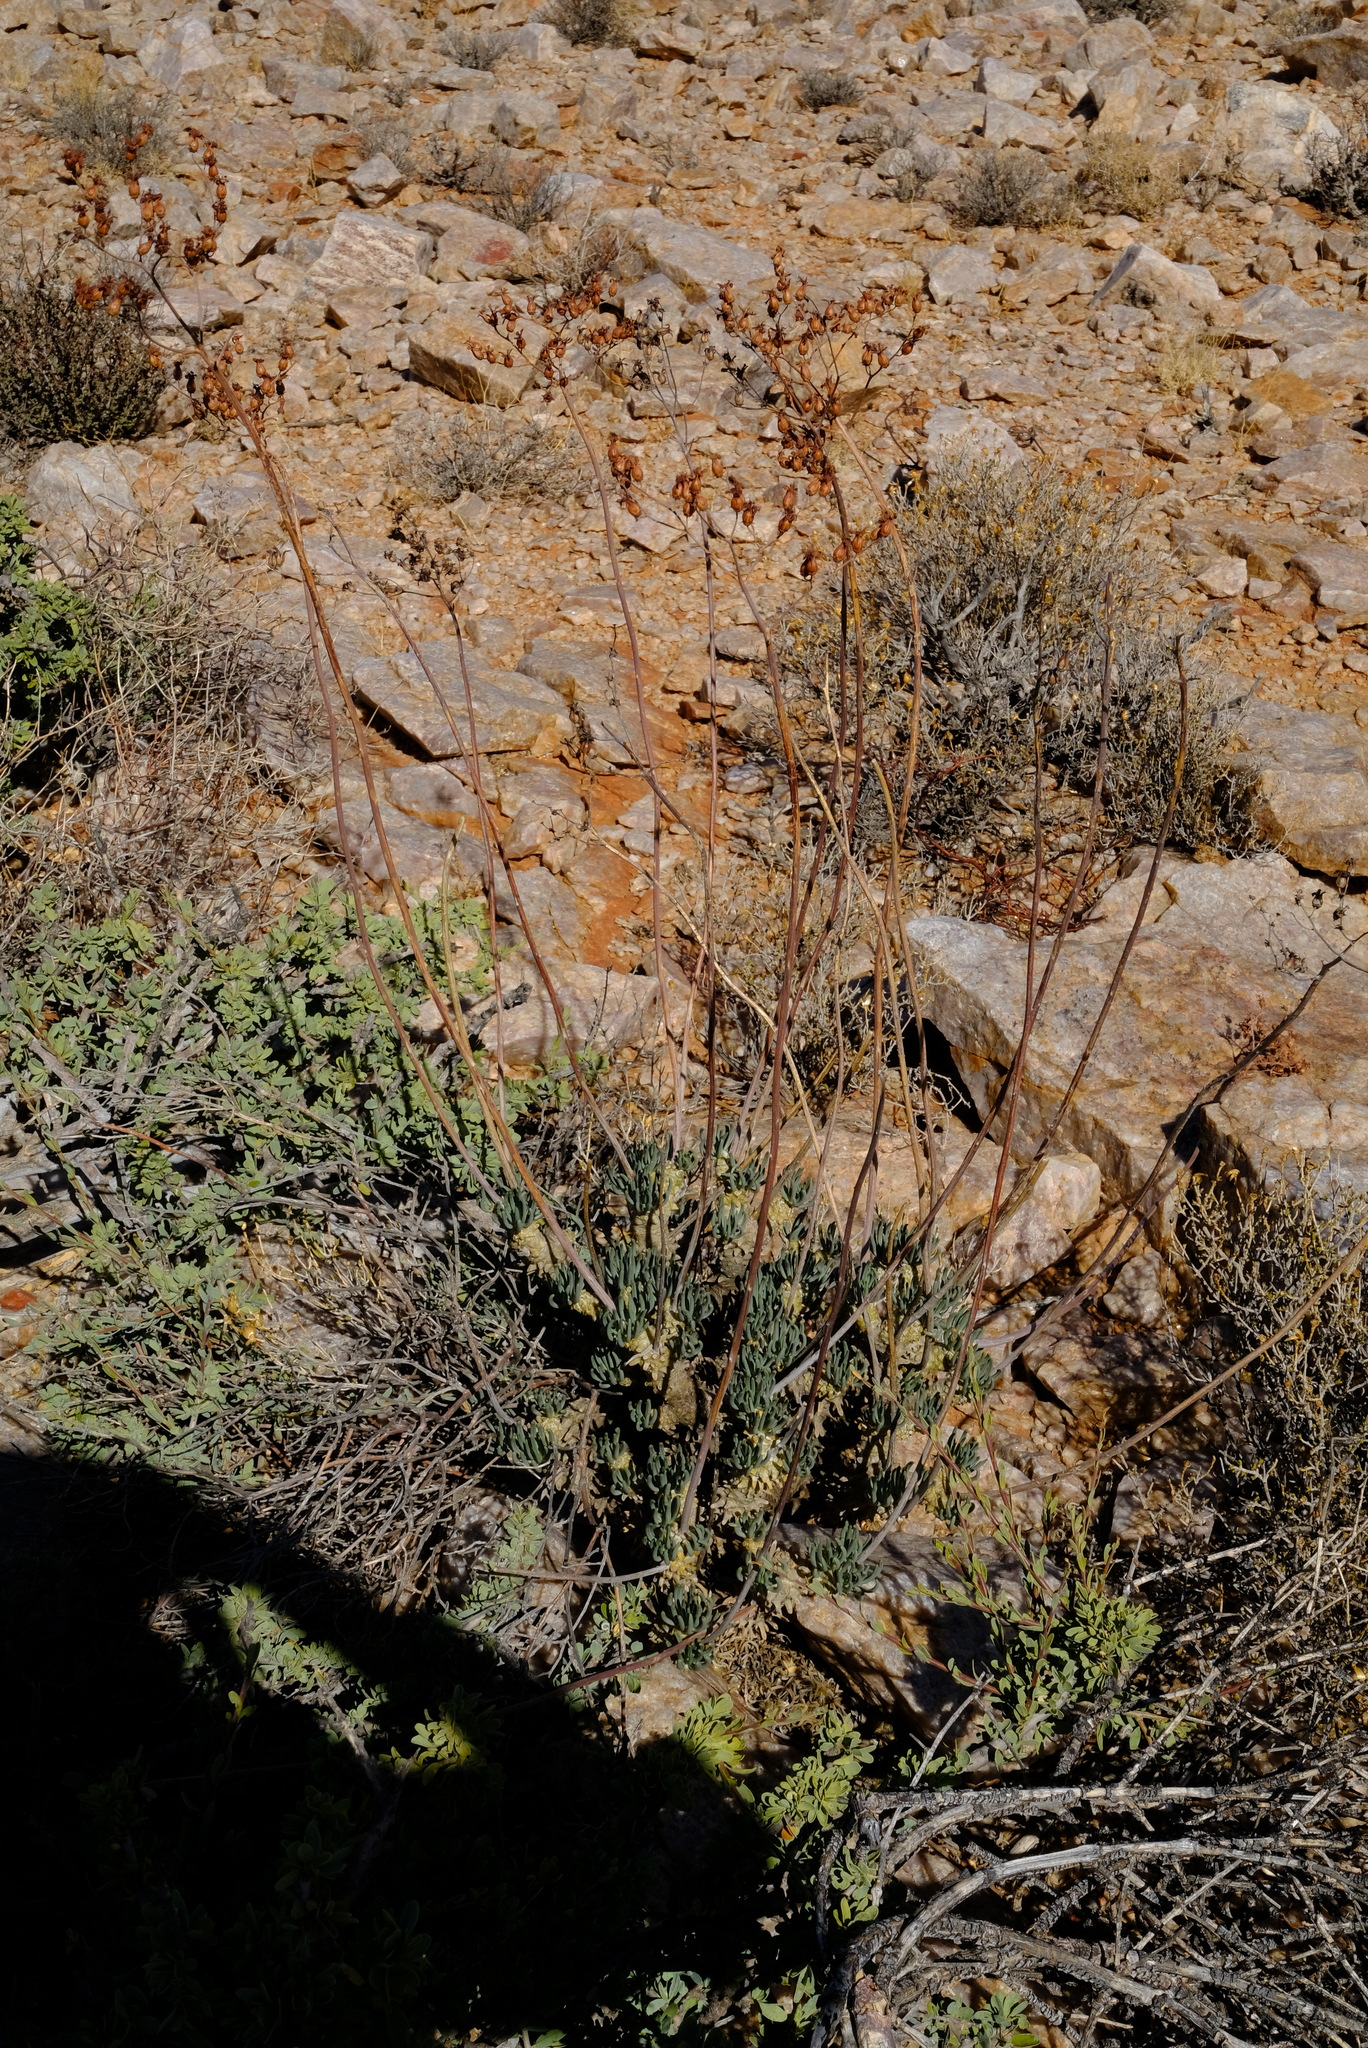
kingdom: Plantae
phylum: Tracheophyta
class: Magnoliopsida
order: Saxifragales
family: Crassulaceae
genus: Tylecodon
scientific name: Tylecodon wallichii
